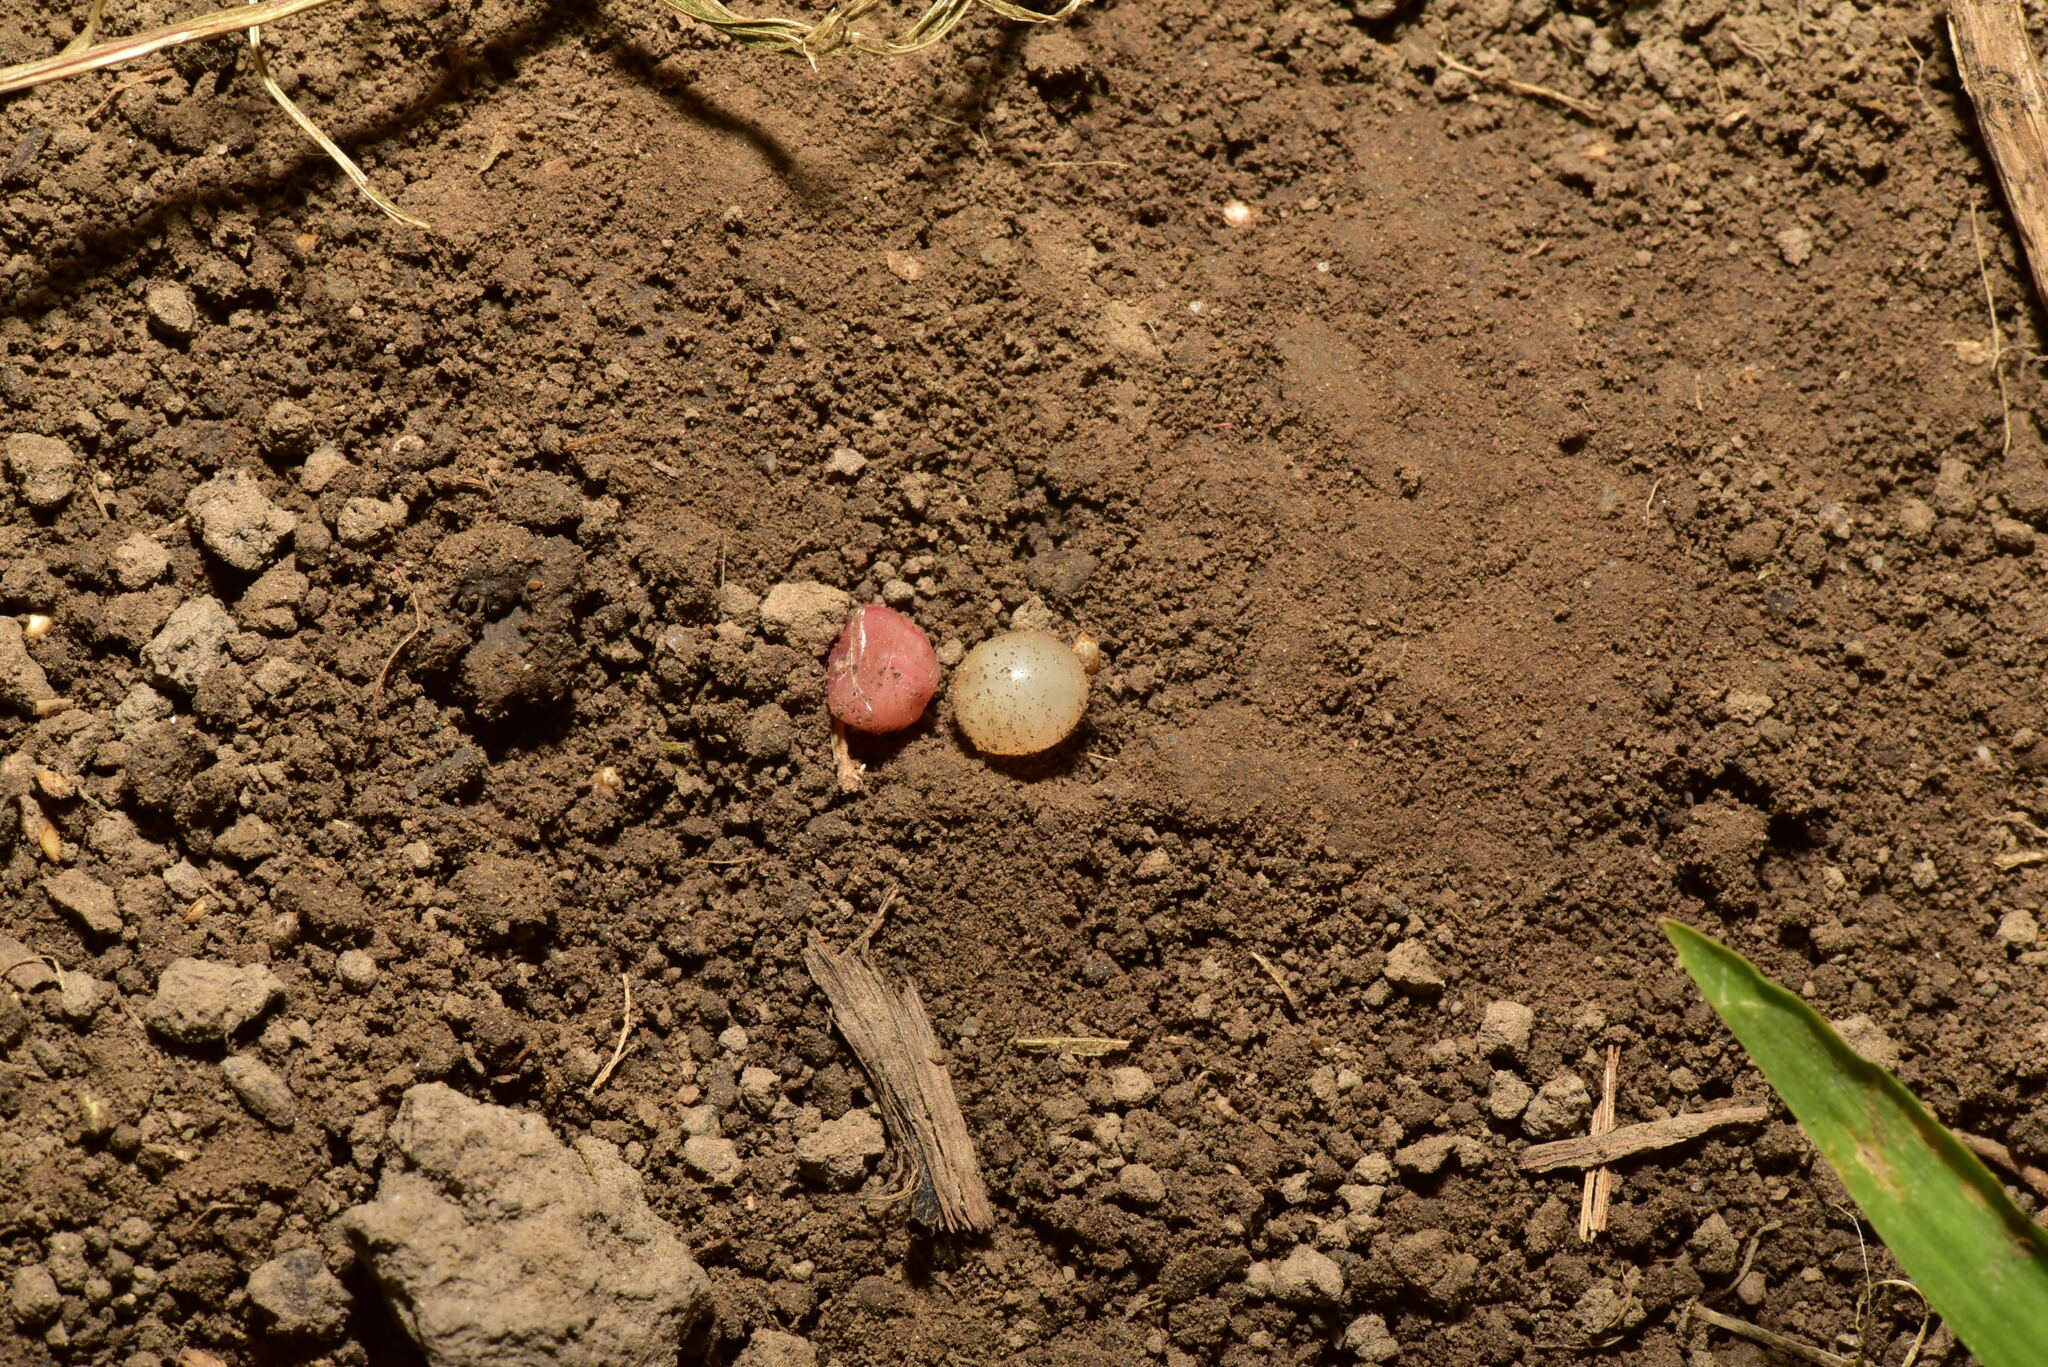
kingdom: Animalia
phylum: Annelida
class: Clitellata
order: Crassiclitellata
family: Rhinodrilidae
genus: Pontoscolex
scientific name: Pontoscolex corethrurus
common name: Earthworm
